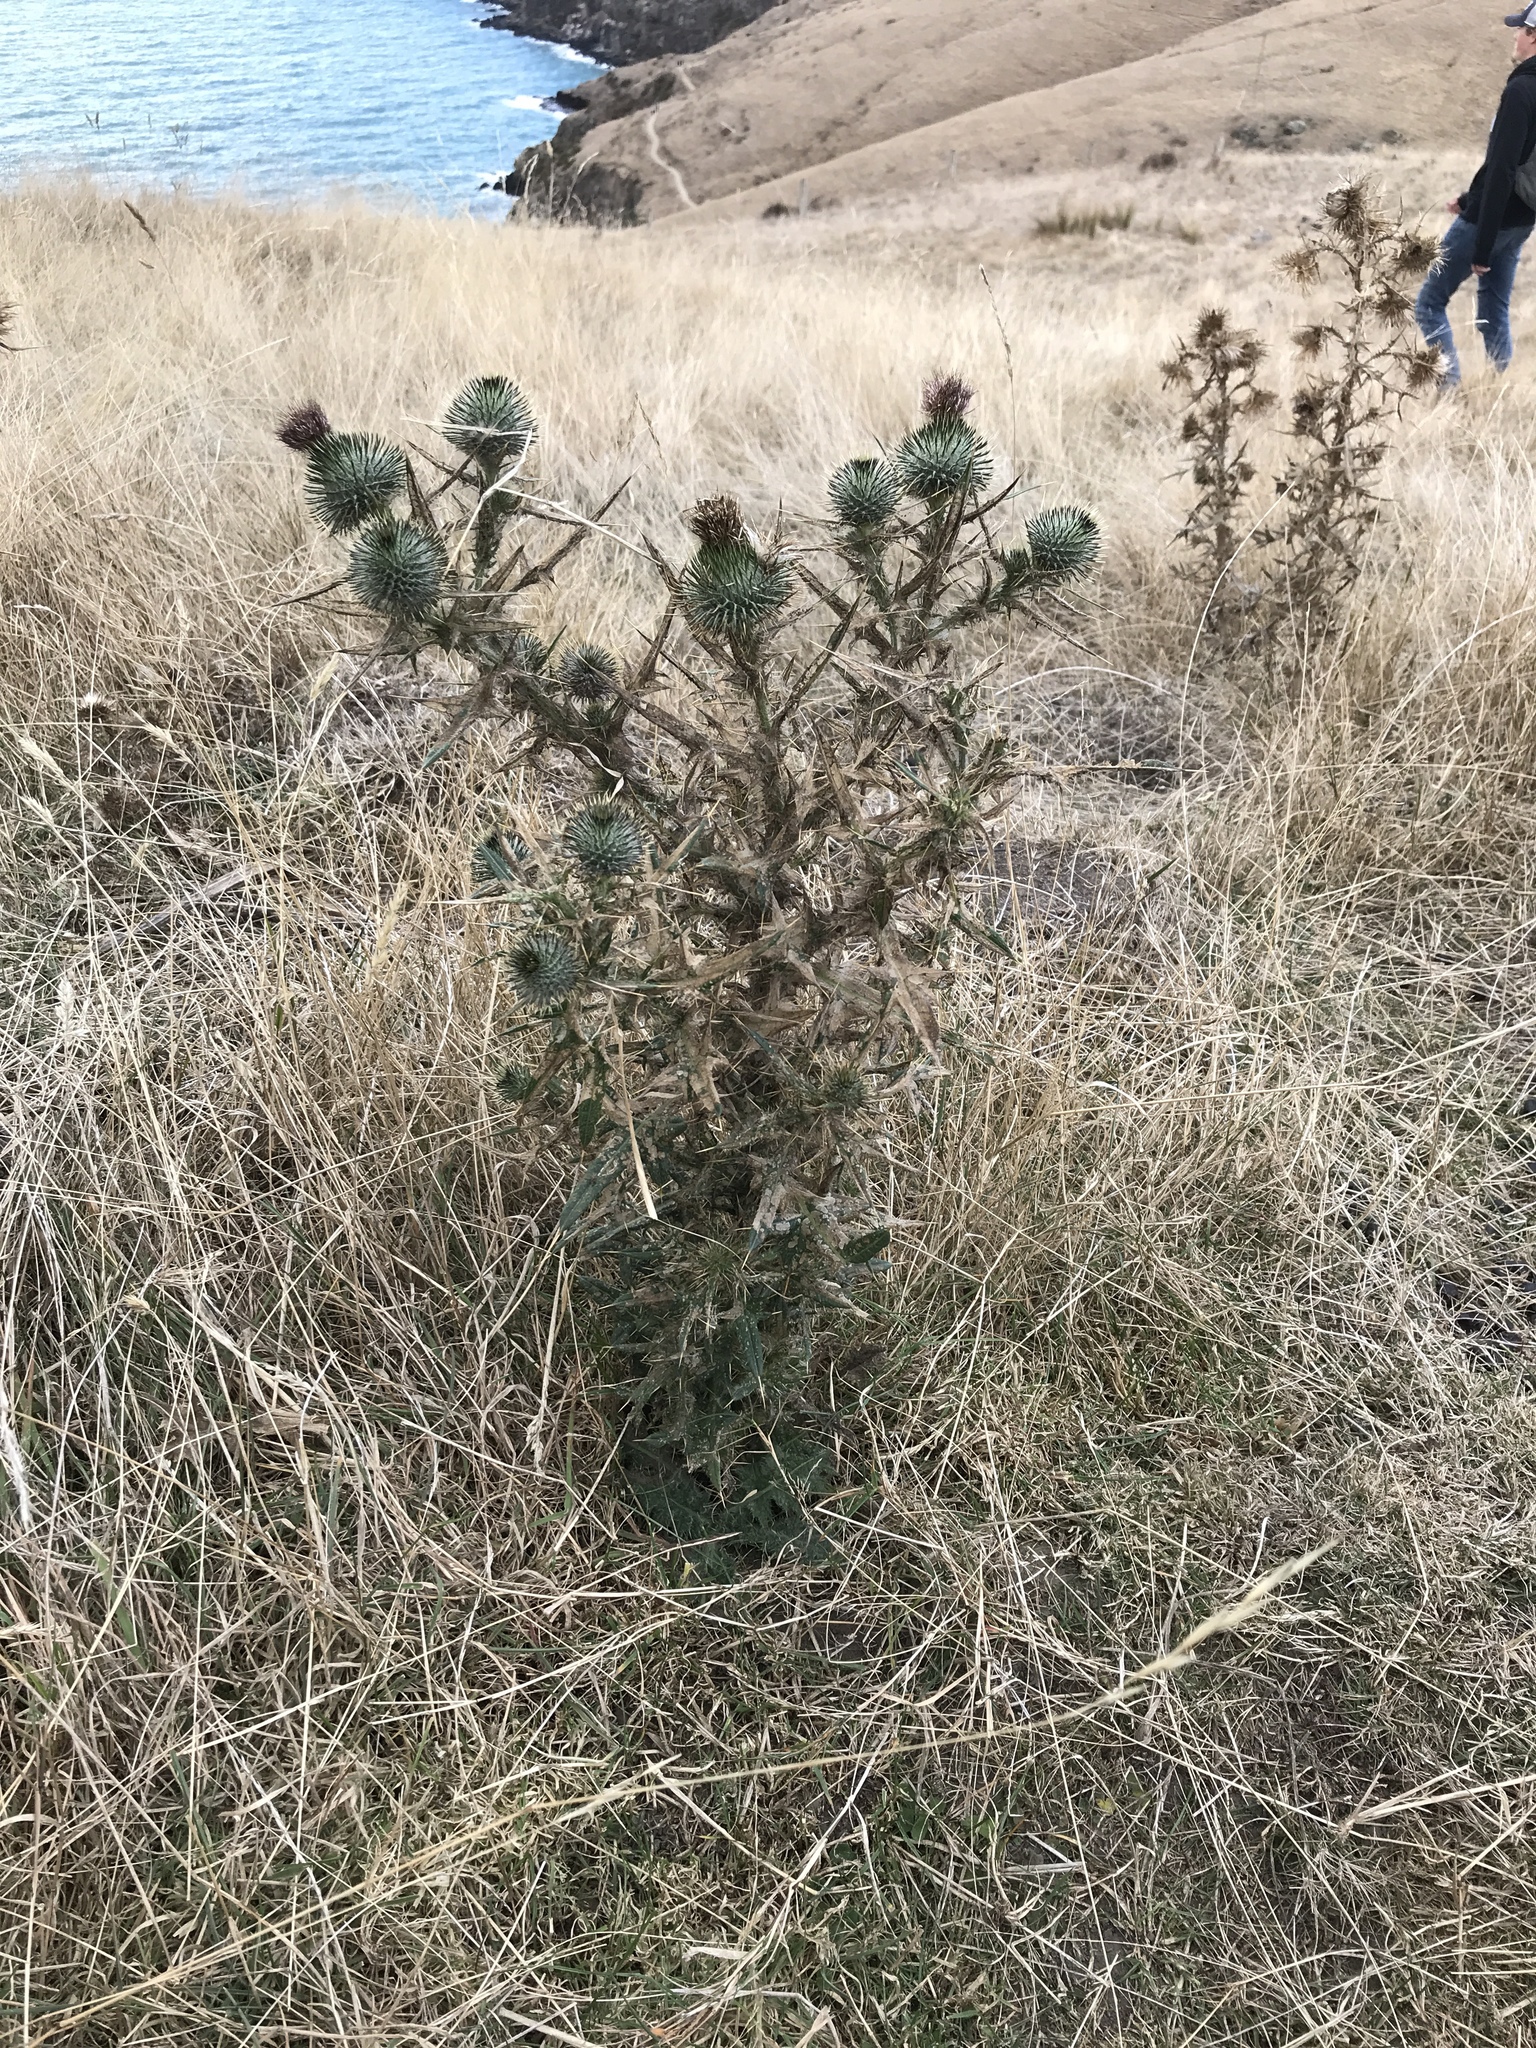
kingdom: Plantae
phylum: Tracheophyta
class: Magnoliopsida
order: Asterales
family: Asteraceae
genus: Cirsium
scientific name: Cirsium vulgare
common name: Bull thistle
